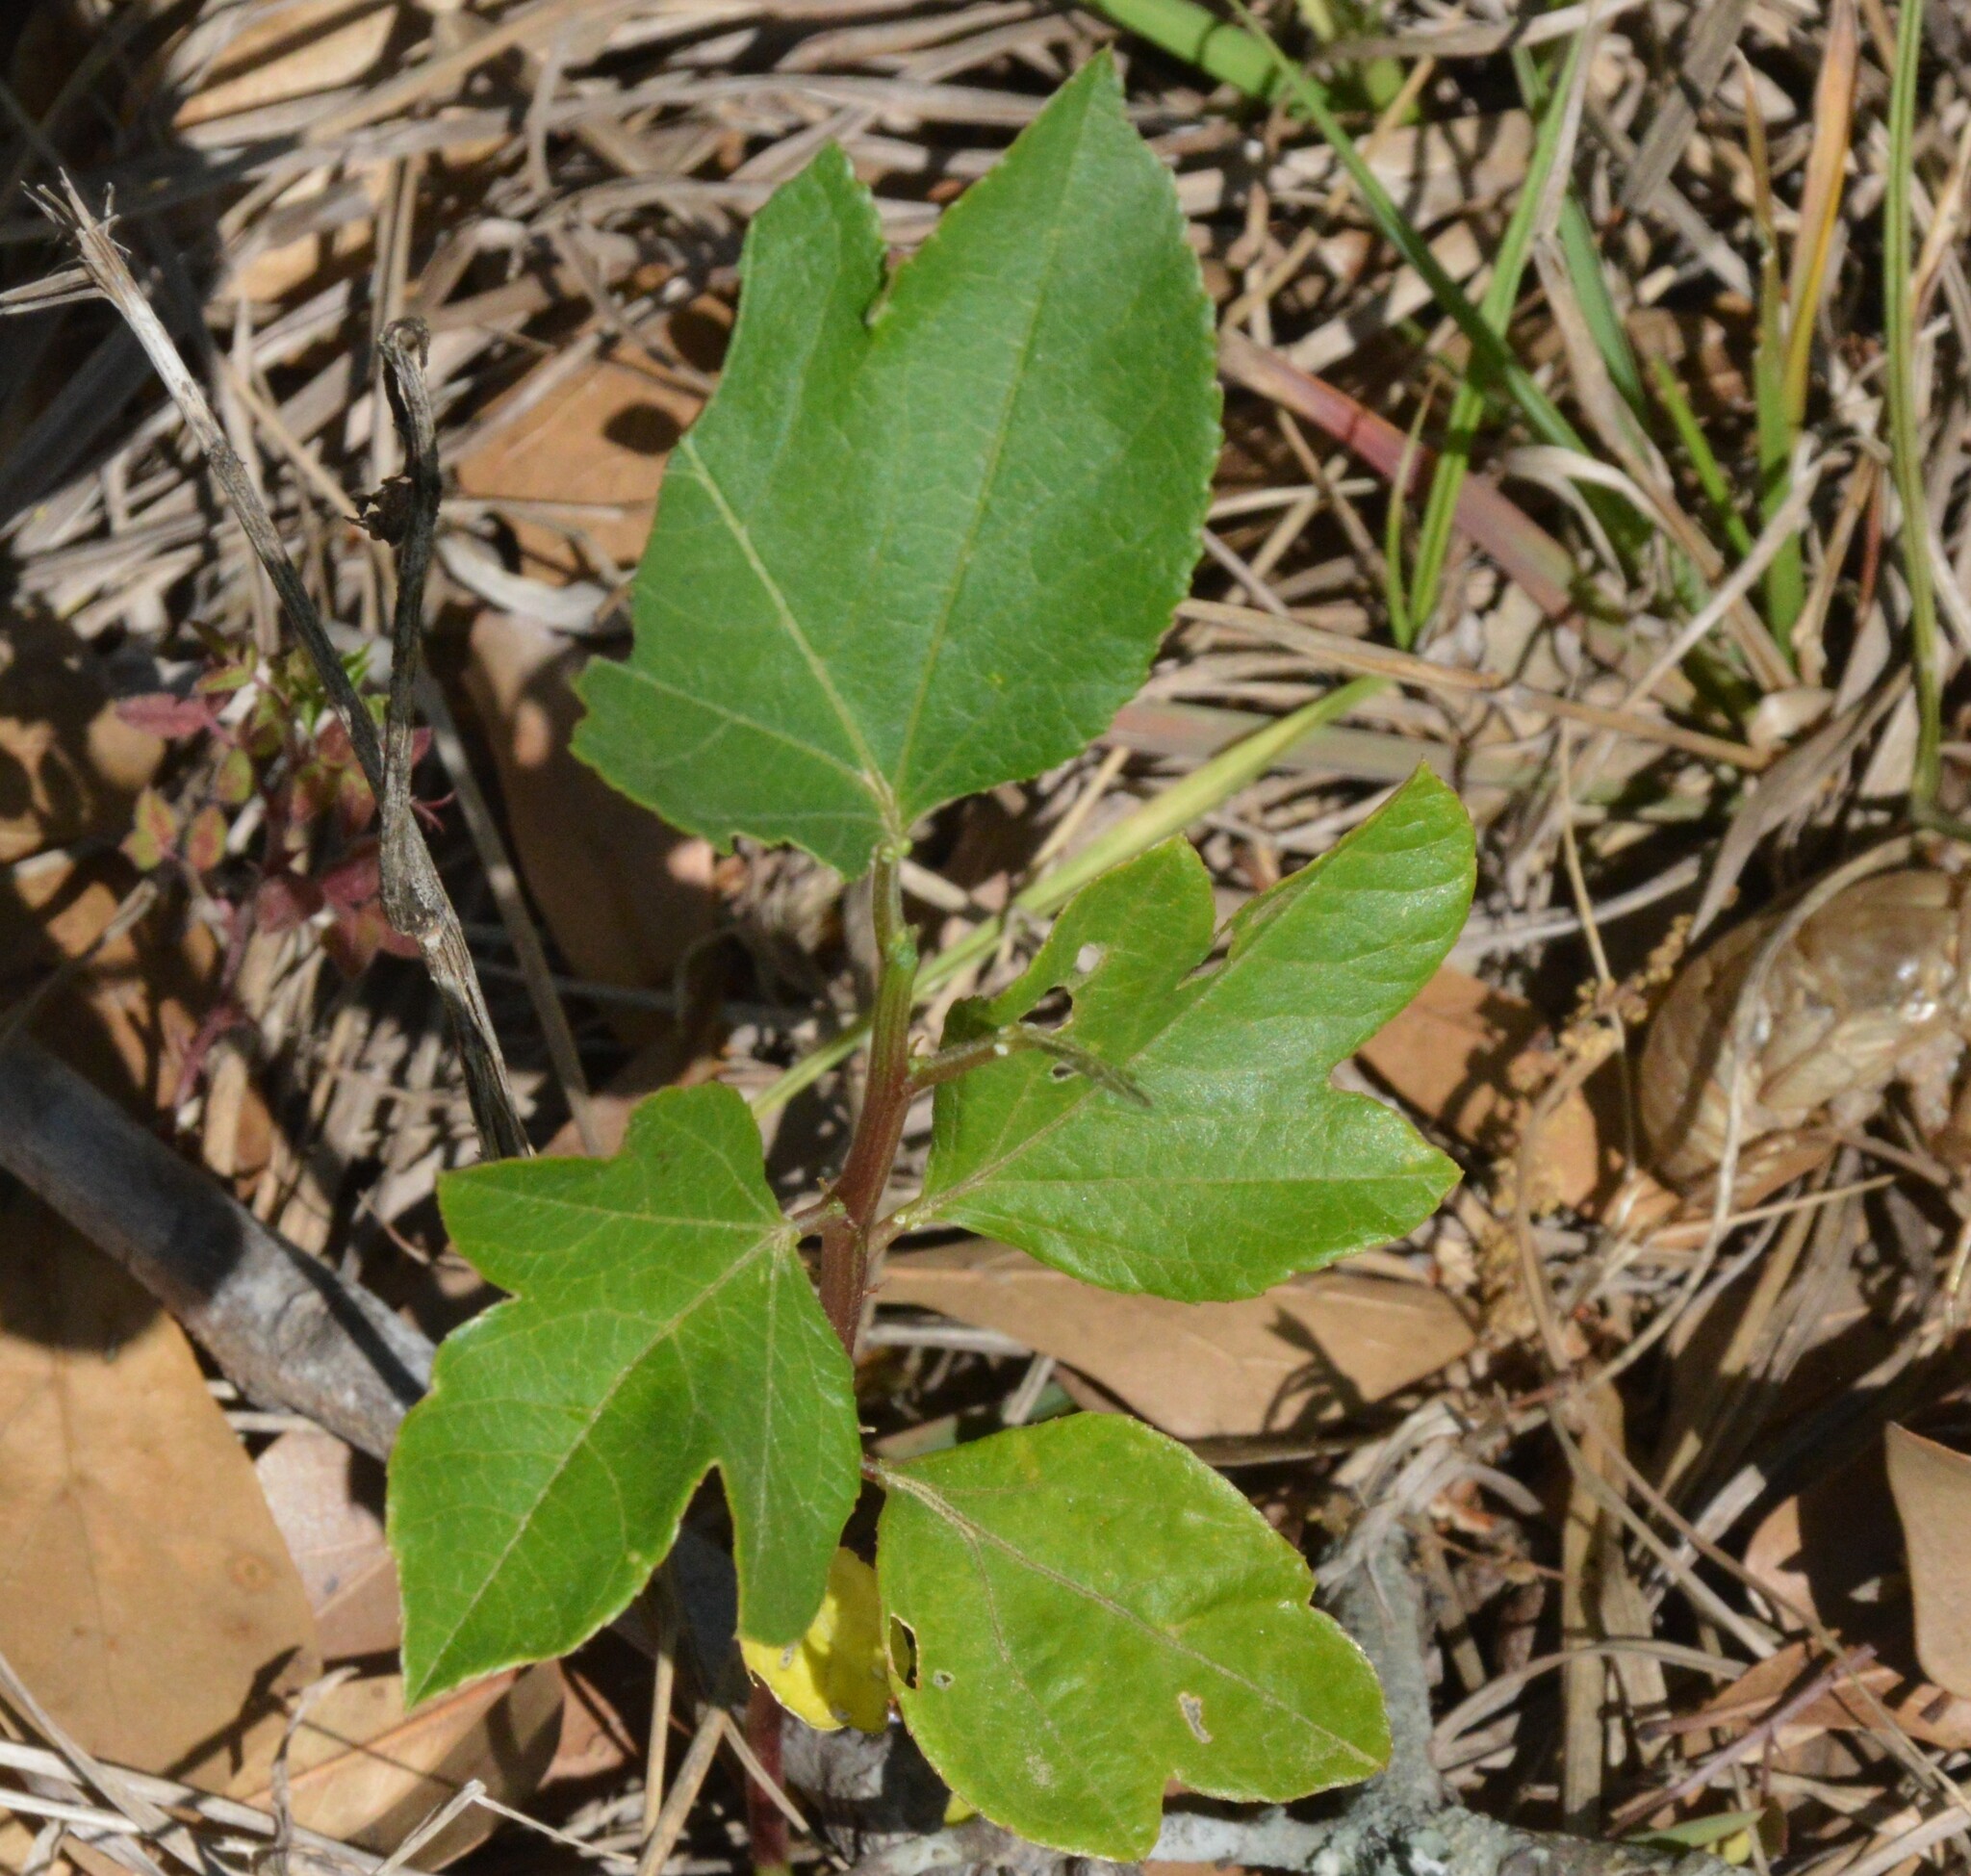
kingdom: Plantae
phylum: Tracheophyta
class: Magnoliopsida
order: Malpighiales
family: Passifloraceae
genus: Passiflora
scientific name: Passiflora incarnata
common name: Apricot-vine
